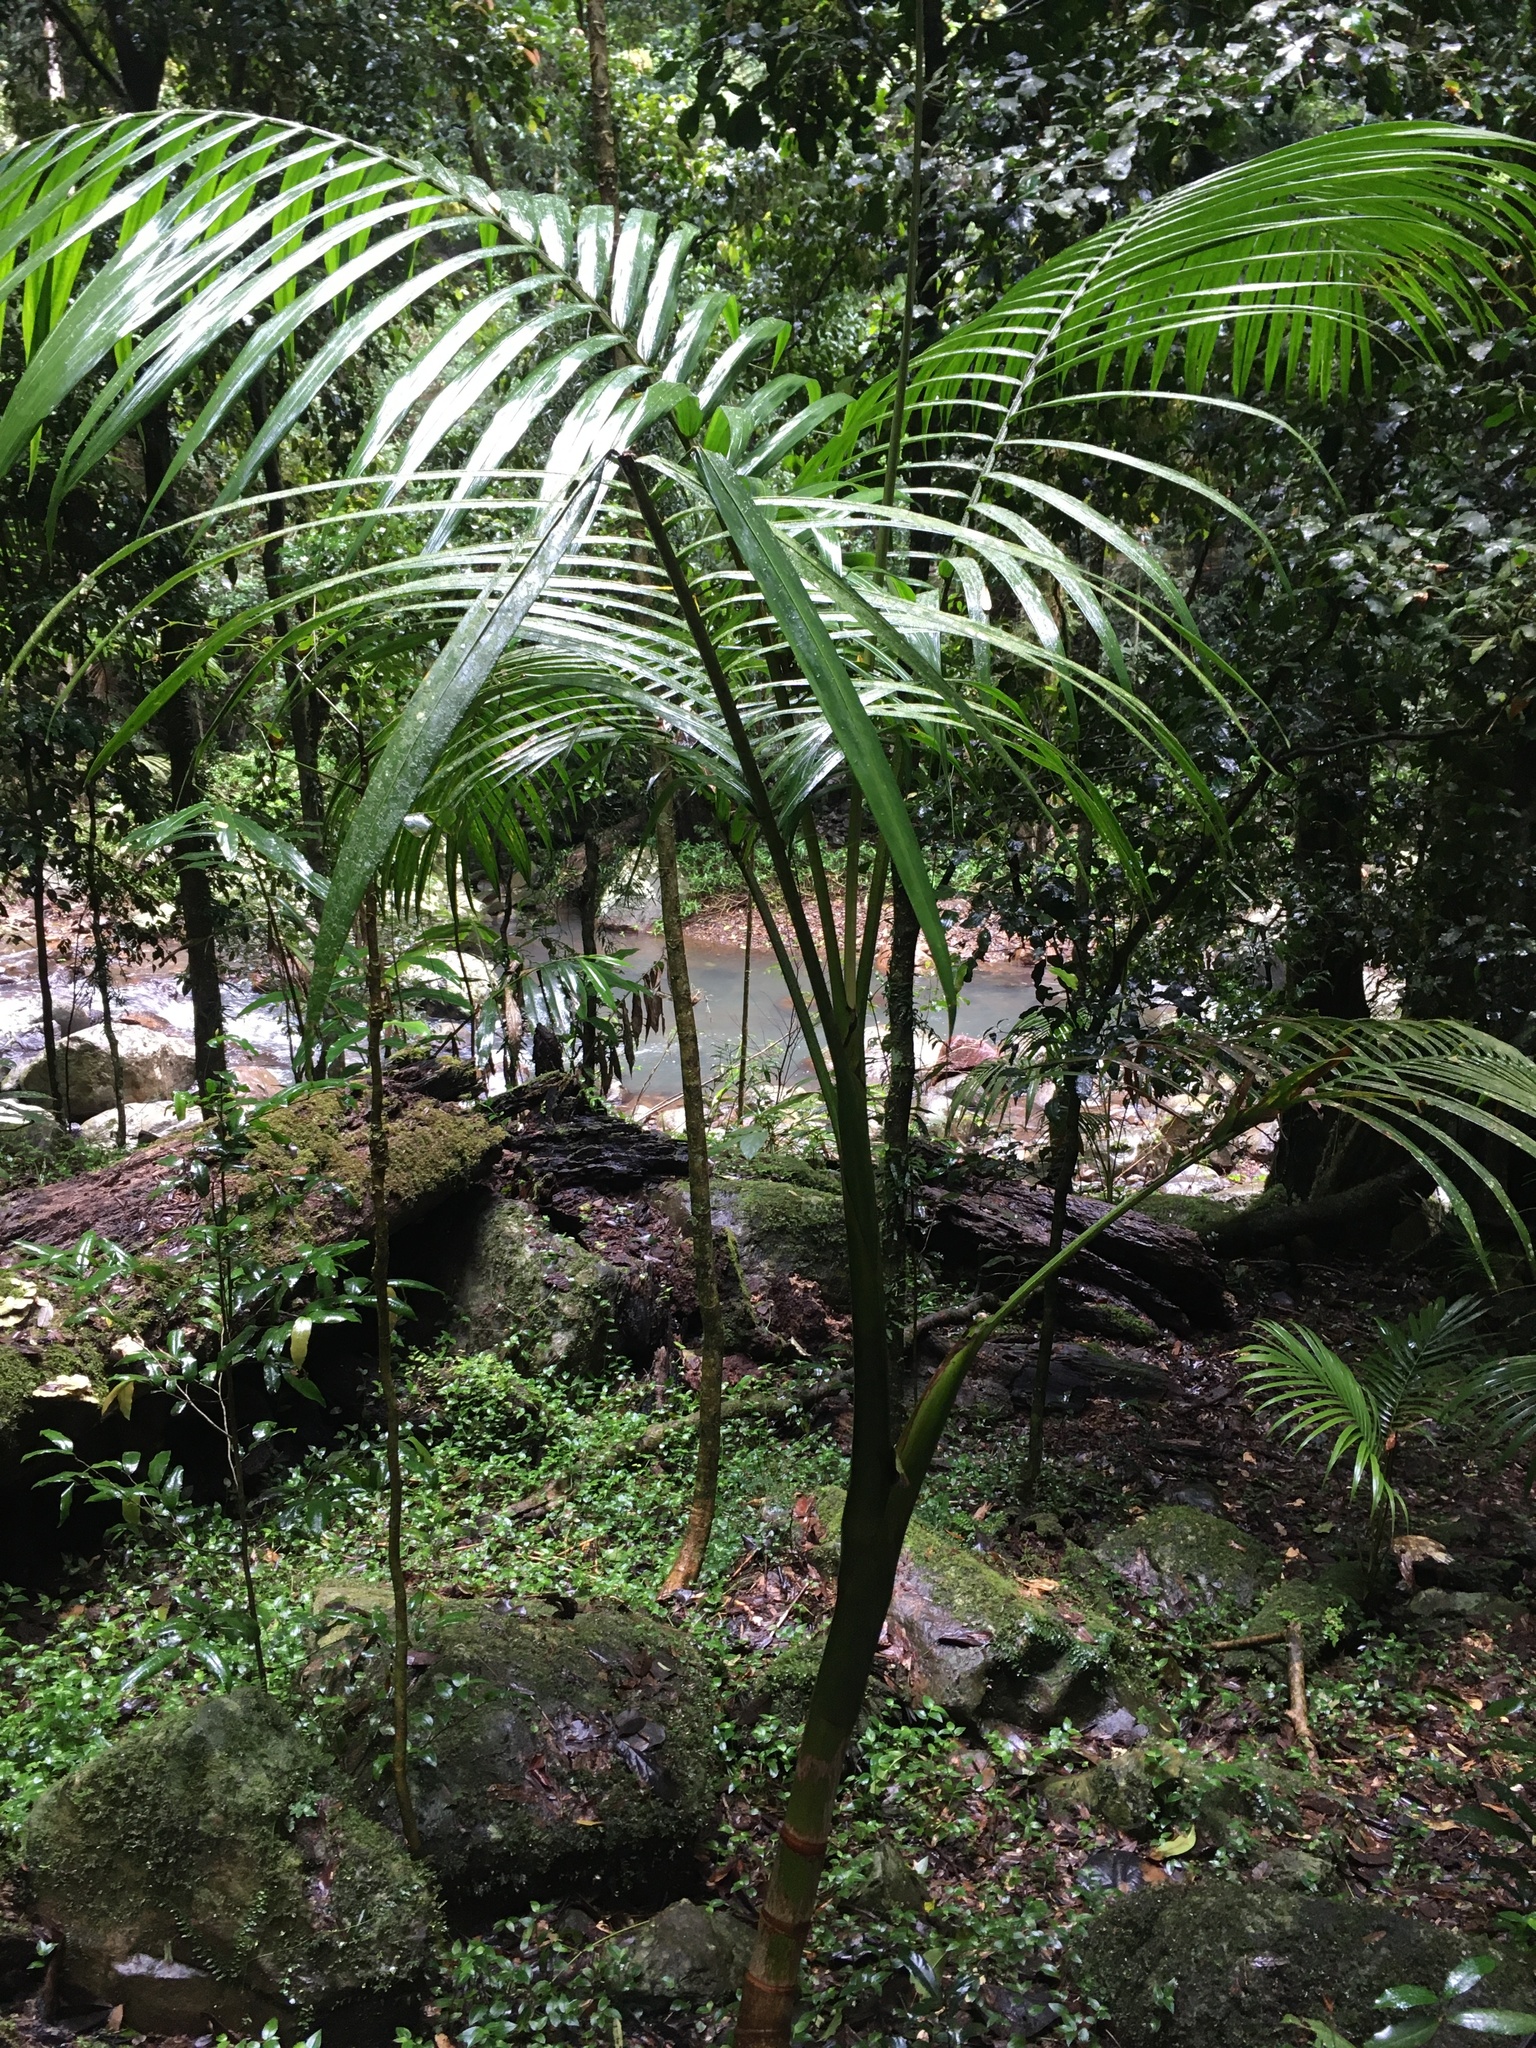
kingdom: Plantae
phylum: Tracheophyta
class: Liliopsida
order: Arecales
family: Arecaceae
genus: Archontophoenix
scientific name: Archontophoenix cunninghamiana
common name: Piccabeen bangalow palm
